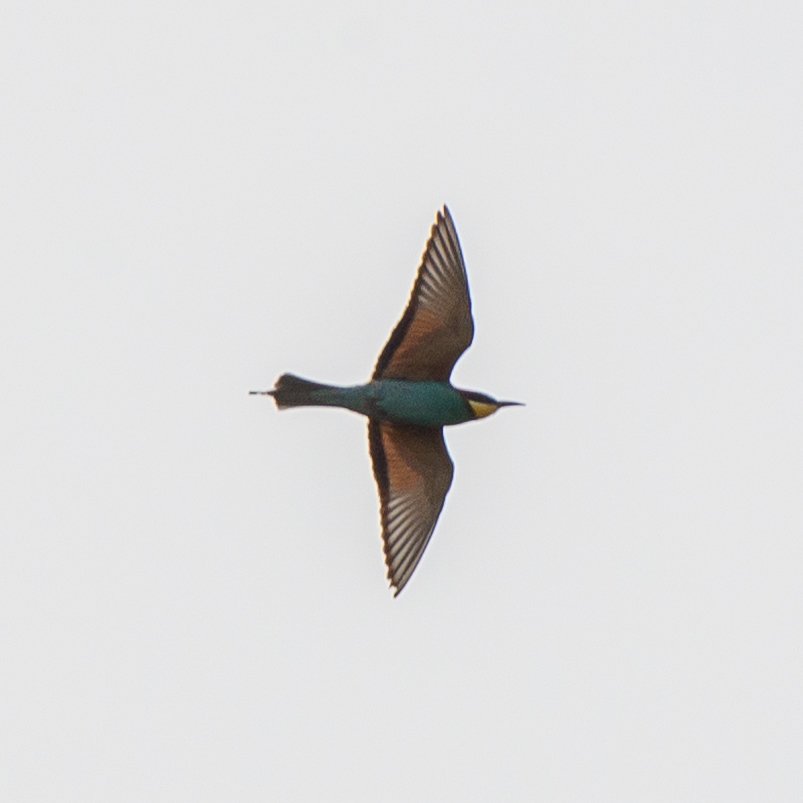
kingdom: Animalia
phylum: Chordata
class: Aves
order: Coraciiformes
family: Meropidae
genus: Merops
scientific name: Merops apiaster
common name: European bee-eater
